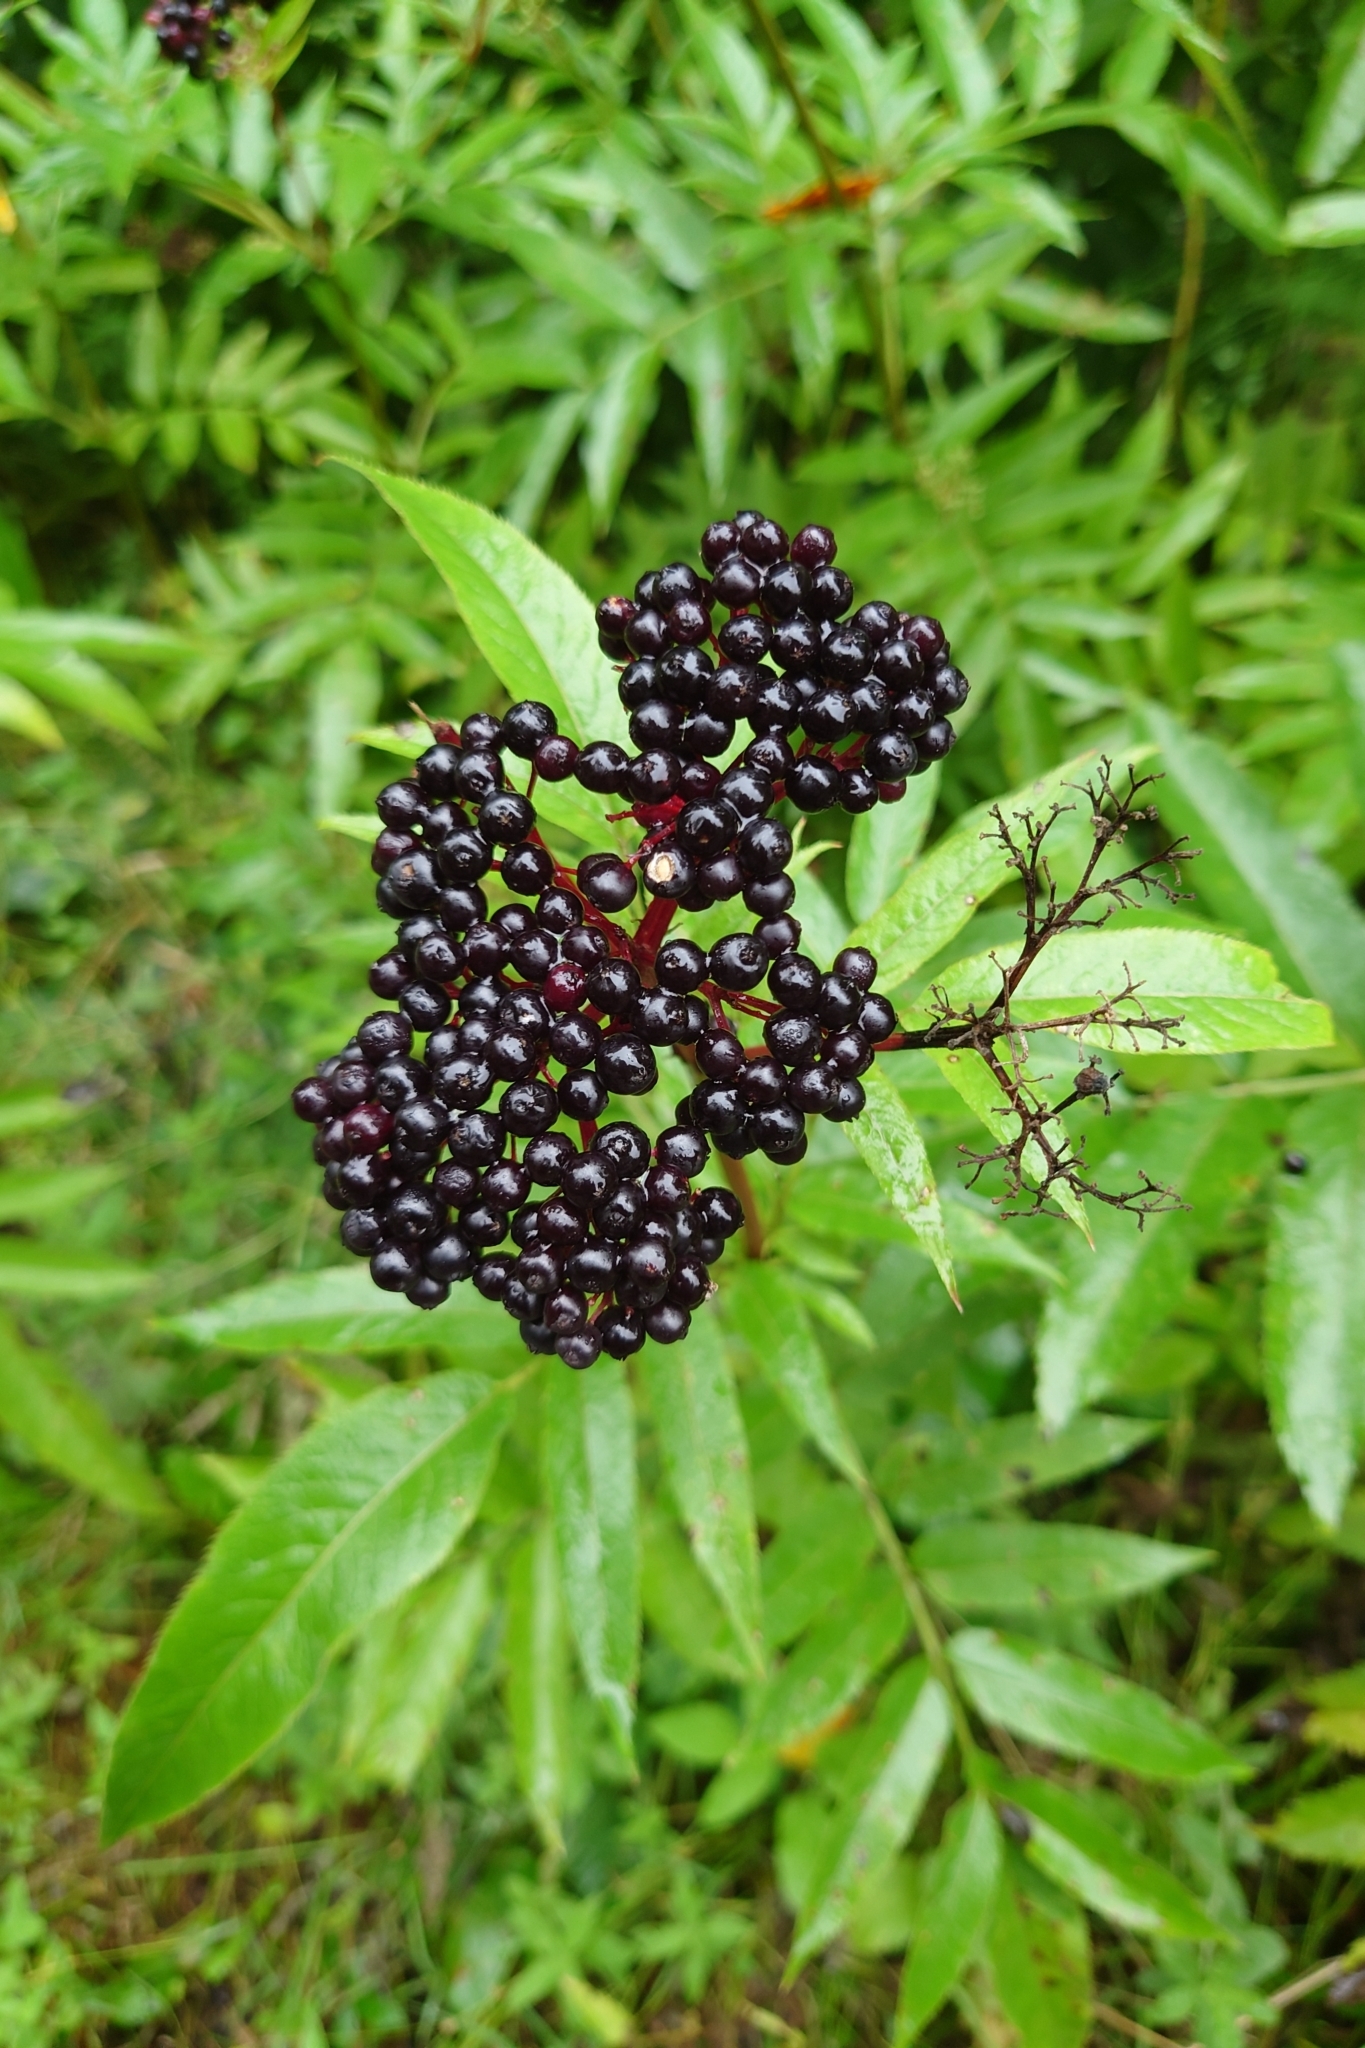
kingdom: Plantae
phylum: Tracheophyta
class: Magnoliopsida
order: Dipsacales
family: Viburnaceae
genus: Sambucus
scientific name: Sambucus ebulus
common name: Dwarf elder
